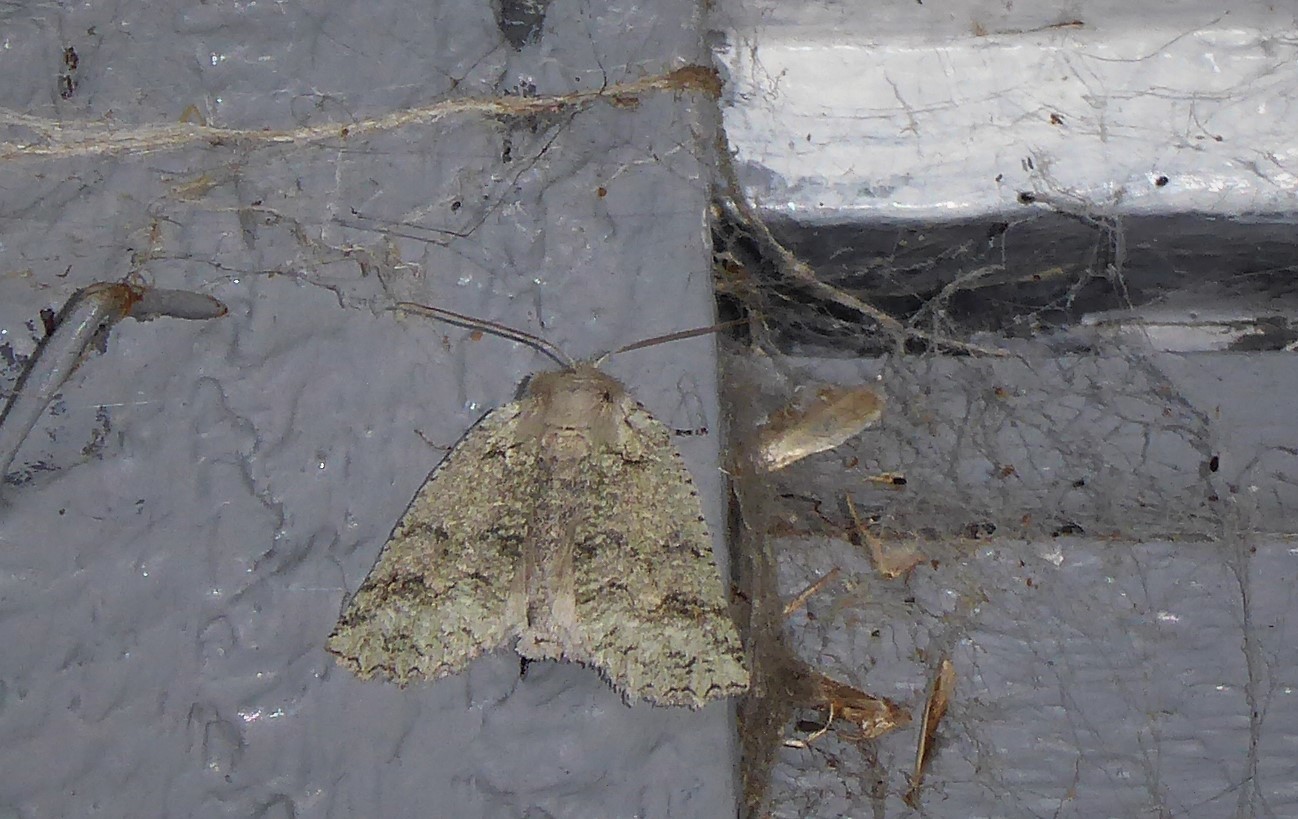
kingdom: Animalia
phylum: Arthropoda
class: Insecta
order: Lepidoptera
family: Geometridae
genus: Declana
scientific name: Declana floccosa
